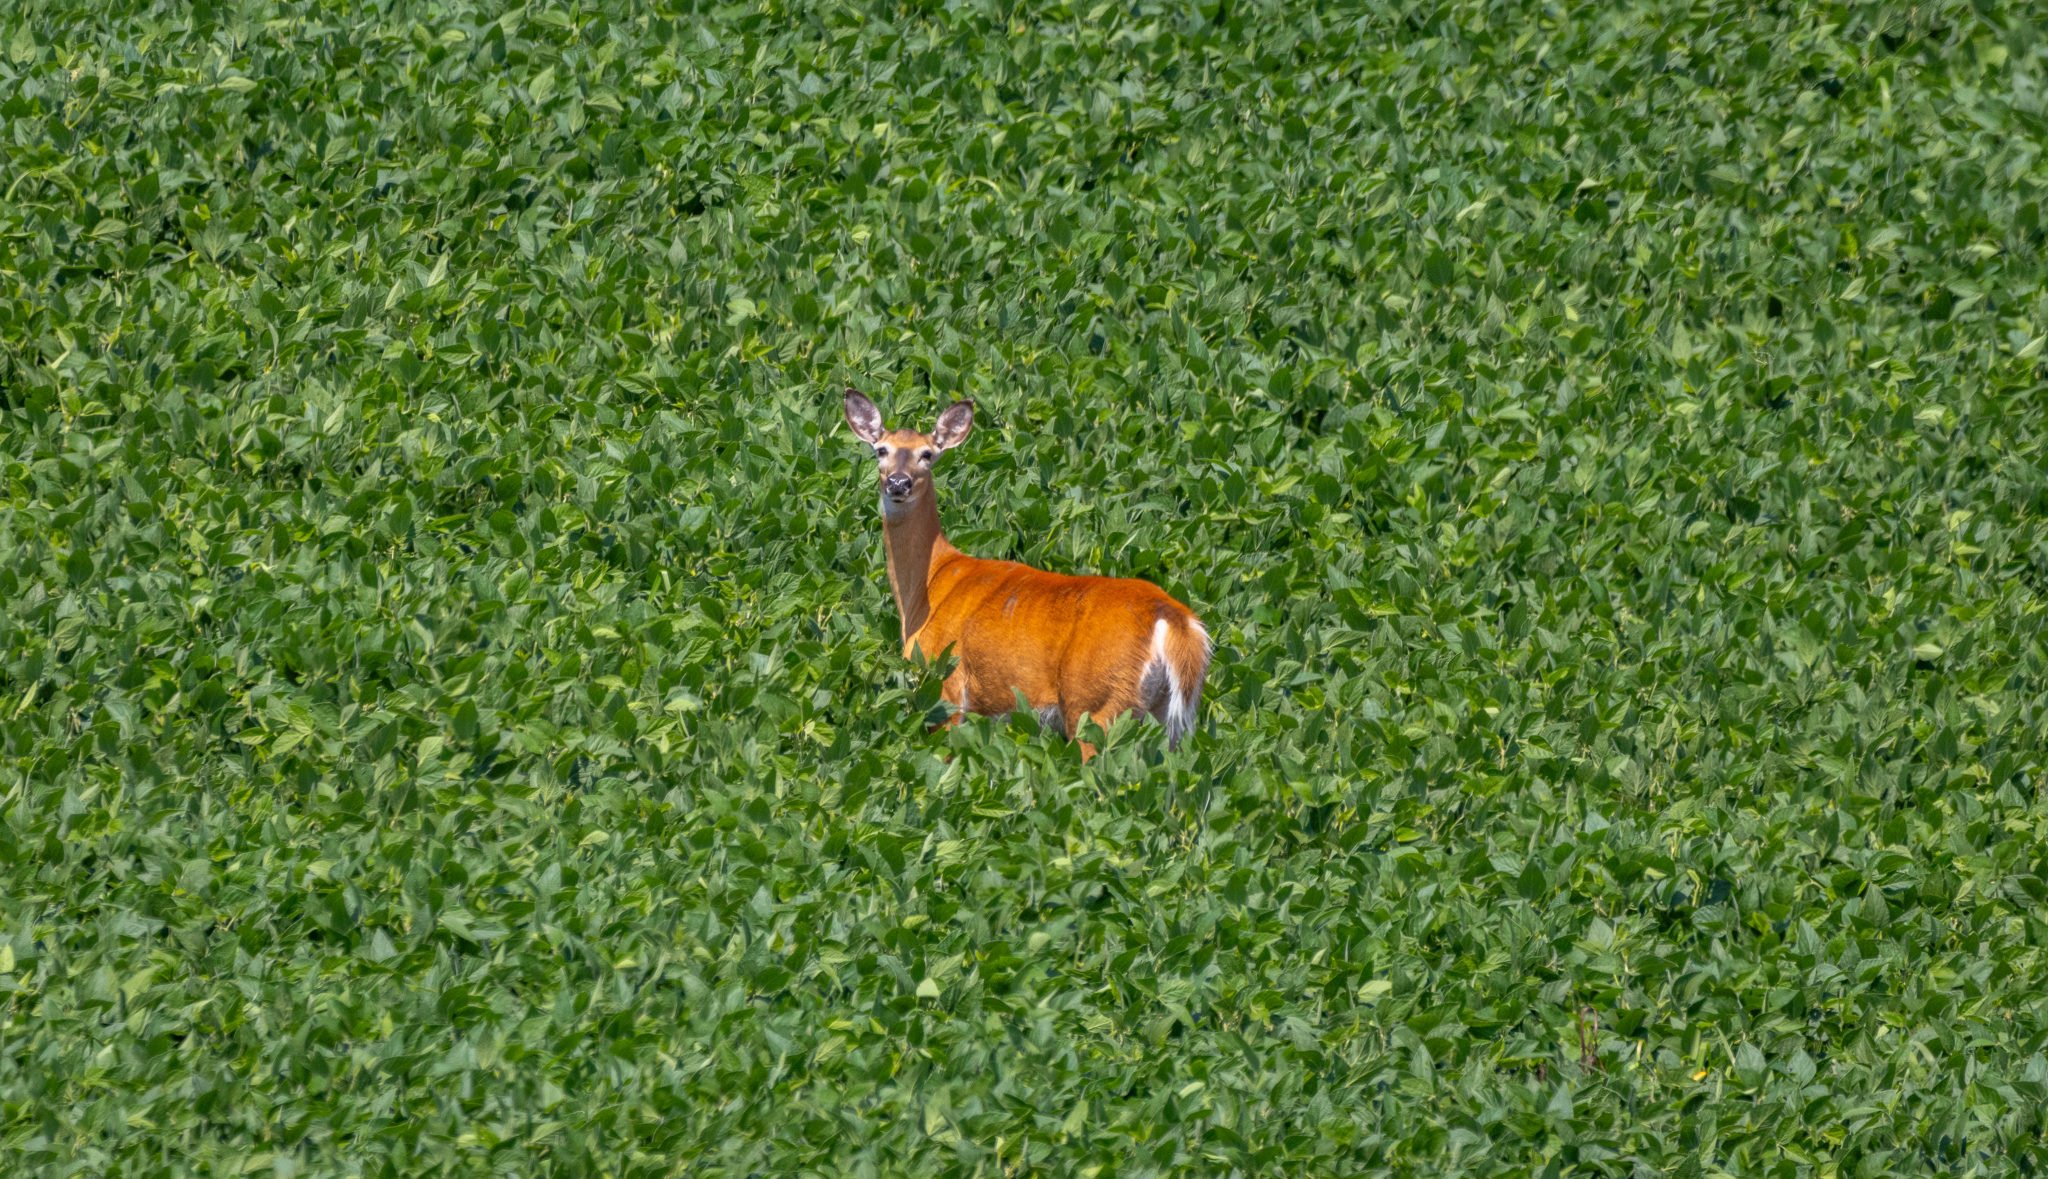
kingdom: Animalia
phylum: Chordata
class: Mammalia
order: Artiodactyla
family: Cervidae
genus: Odocoileus
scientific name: Odocoileus virginianus
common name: White-tailed deer
